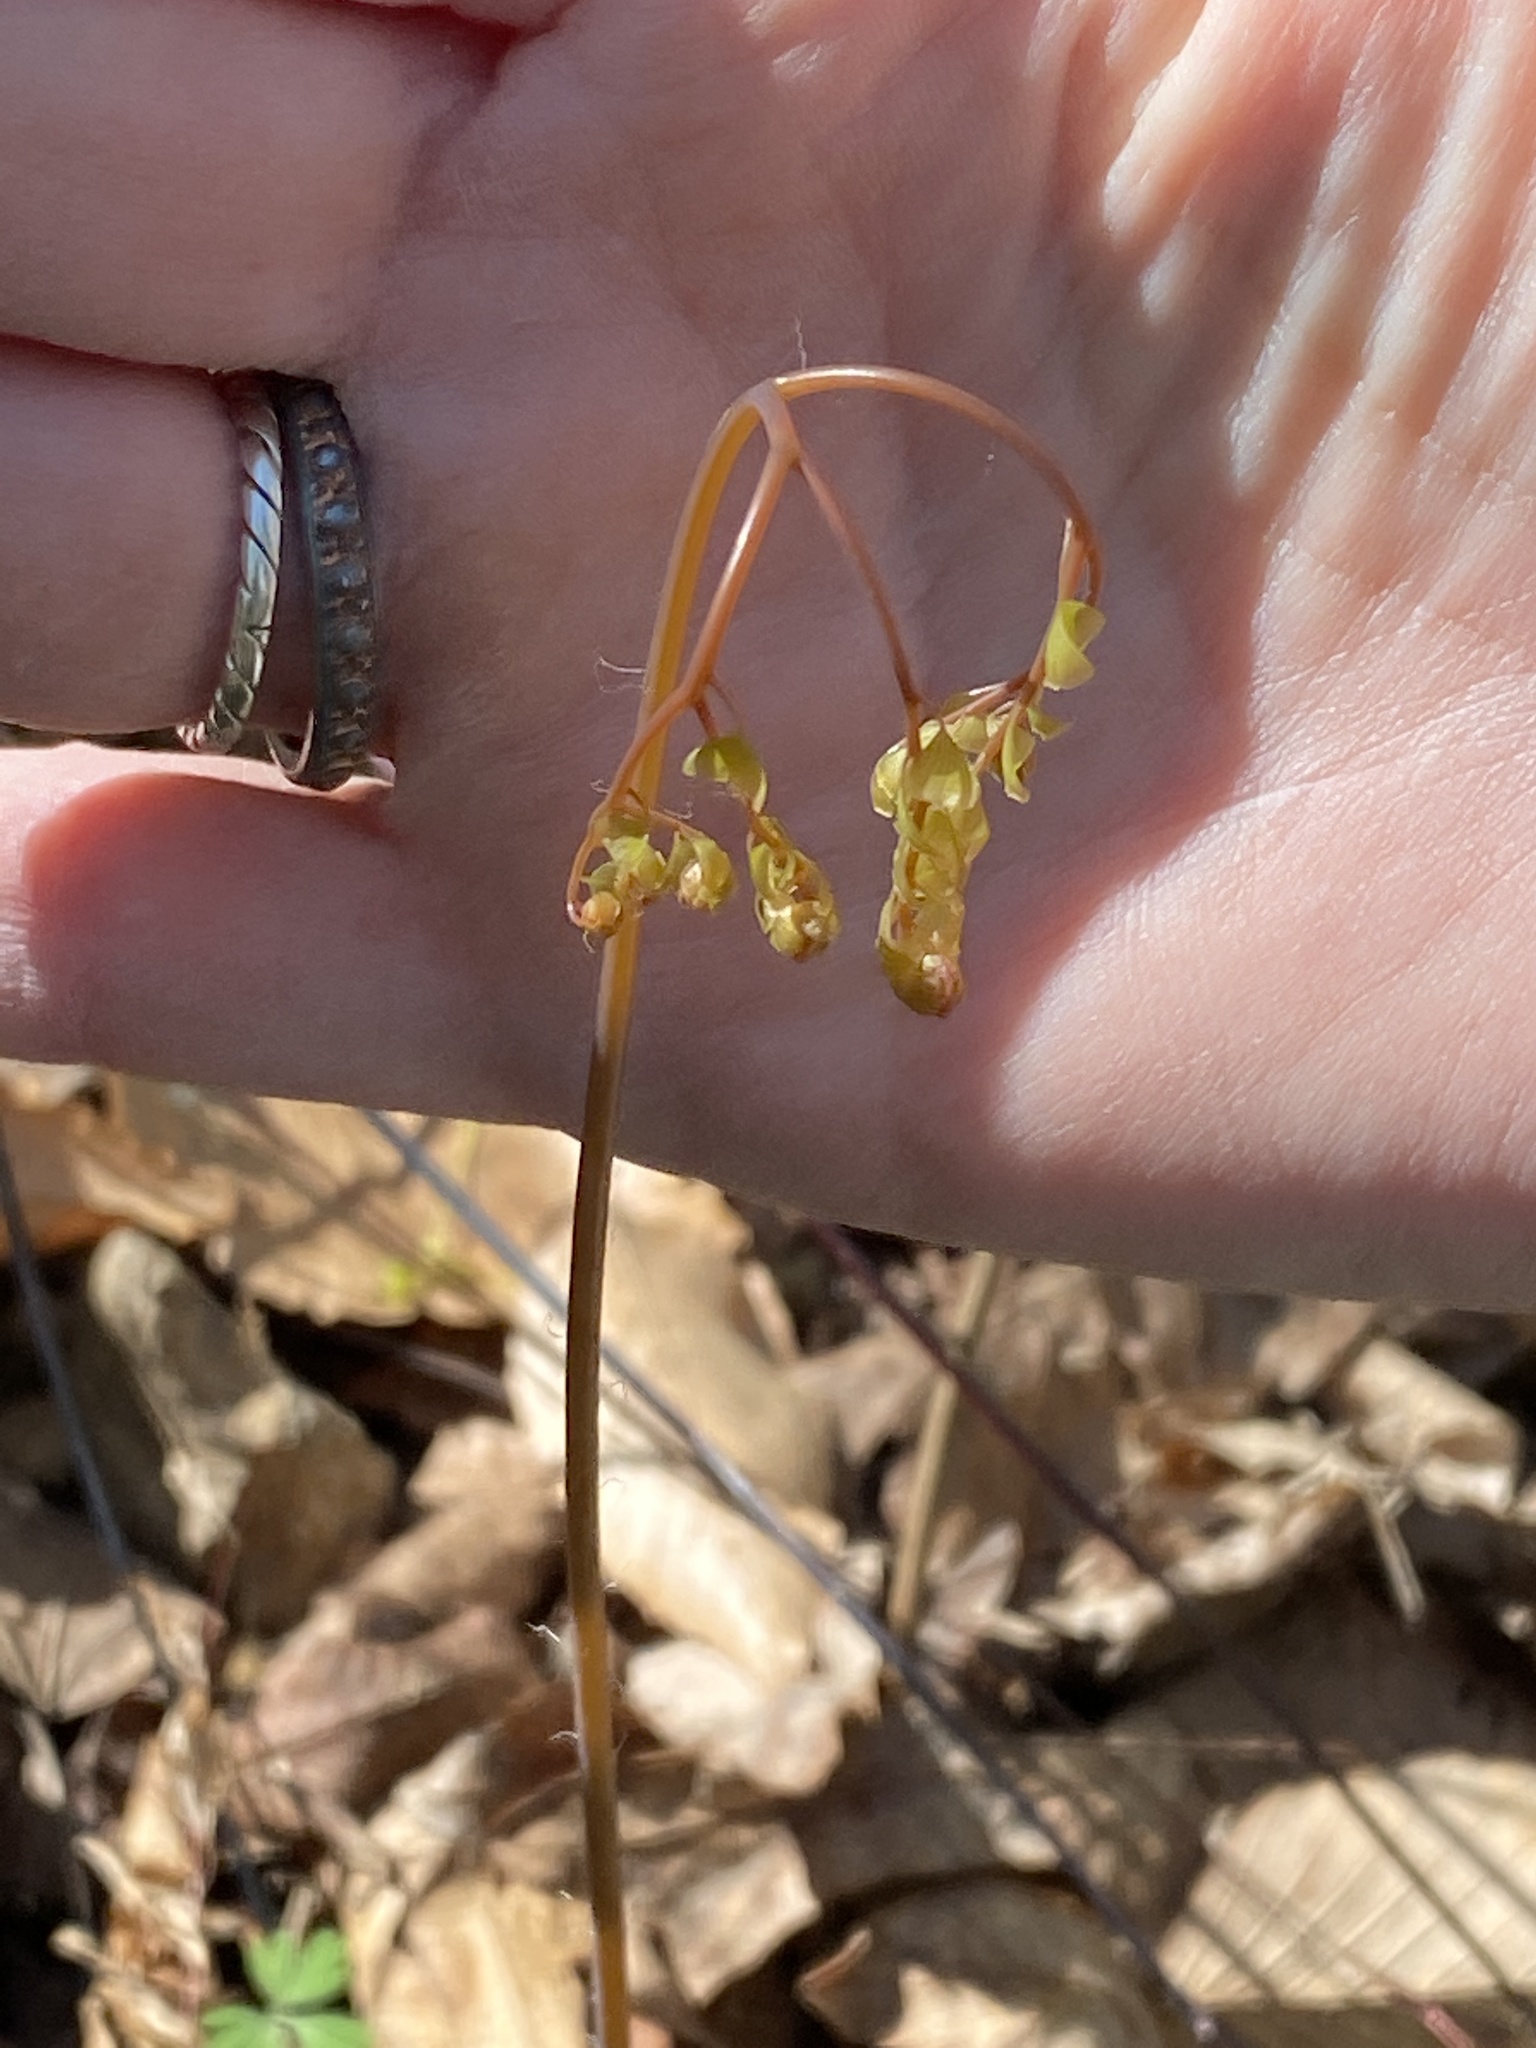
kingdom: Plantae
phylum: Tracheophyta
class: Polypodiopsida
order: Polypodiales
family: Pteridaceae
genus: Adiantum
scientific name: Adiantum pedatum
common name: Five-finger fern
